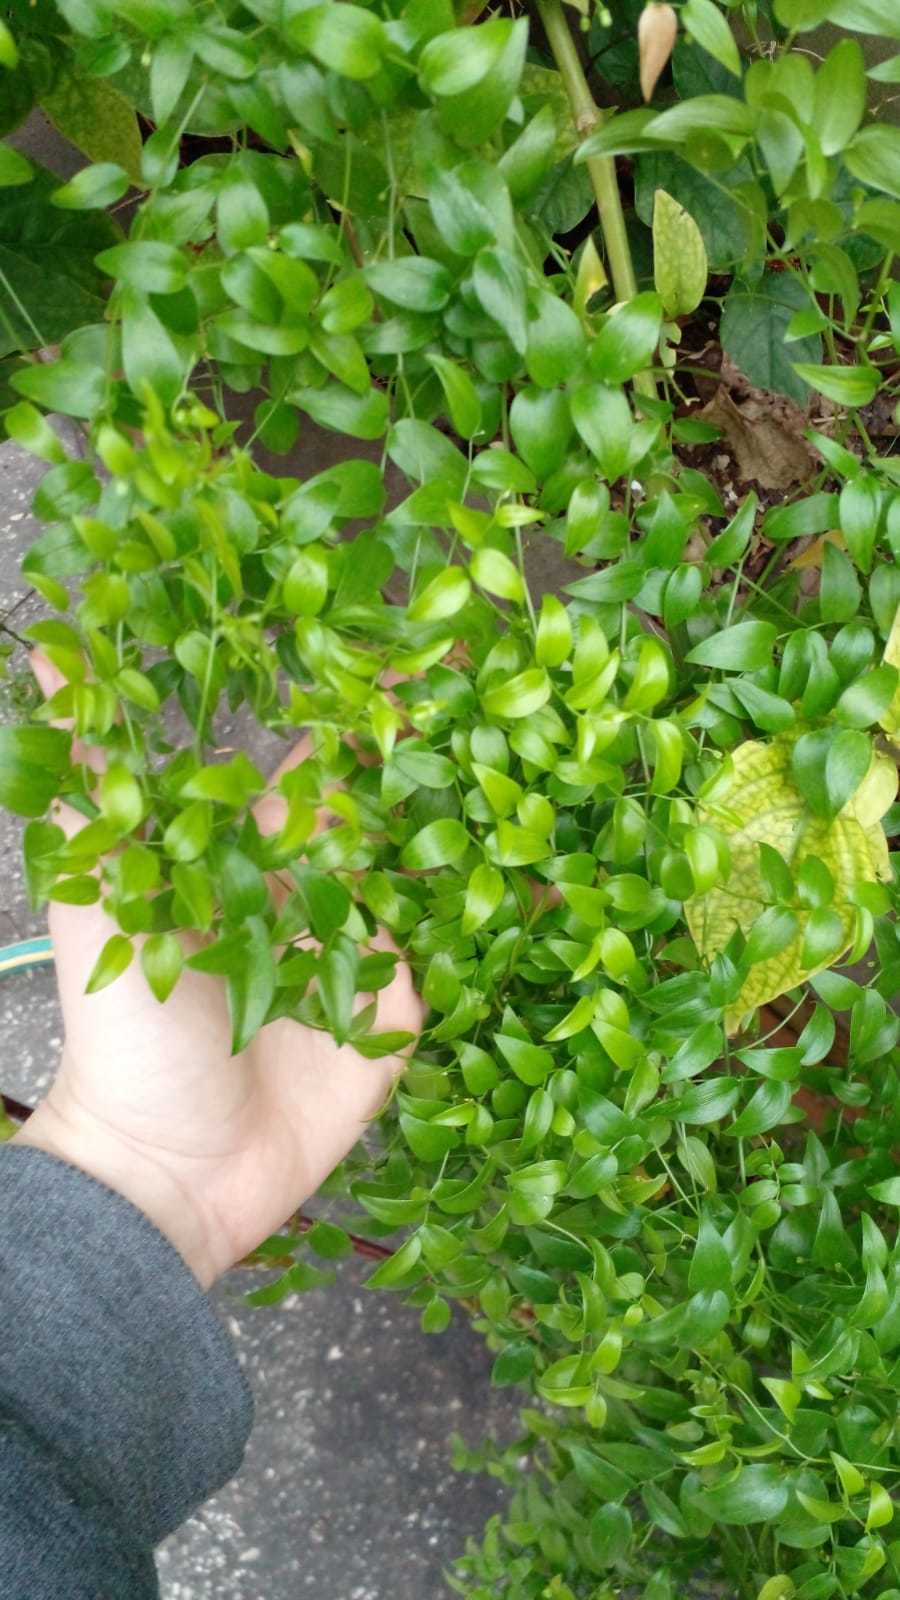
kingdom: Plantae
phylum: Tracheophyta
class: Liliopsida
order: Asparagales
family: Asparagaceae
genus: Asparagus
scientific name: Asparagus asparagoides
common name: African asparagus fern
